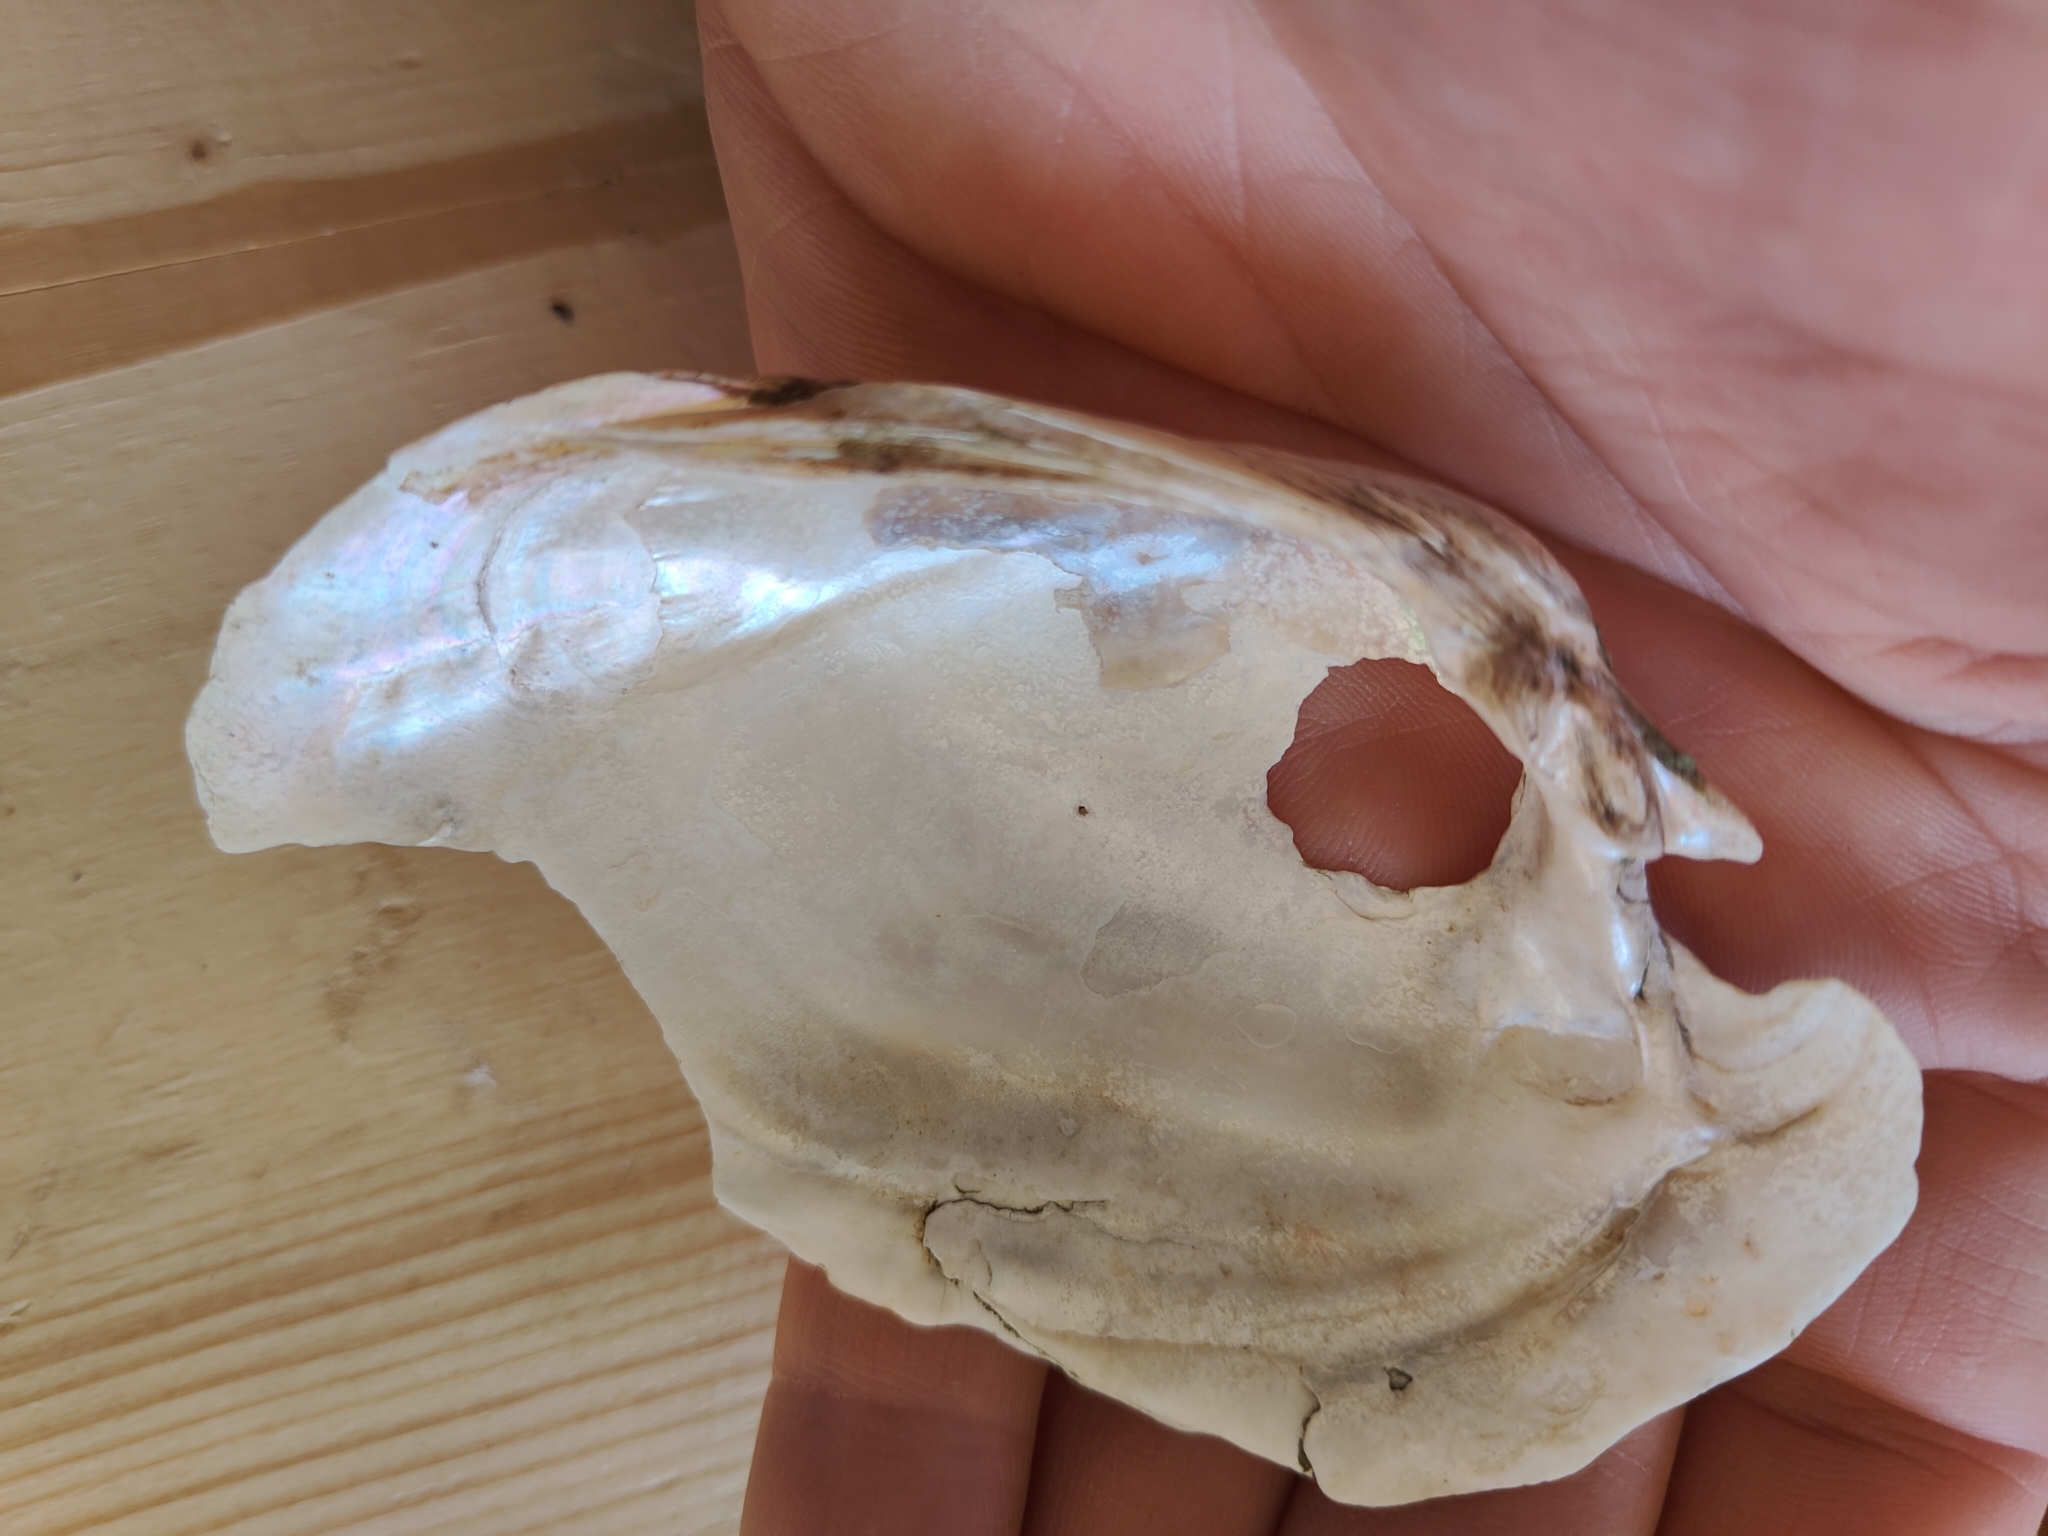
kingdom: Animalia
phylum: Mollusca
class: Bivalvia
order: Unionida
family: Unionidae
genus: Lampsilis
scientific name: Lampsilis cardium
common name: Plain pocketbook
